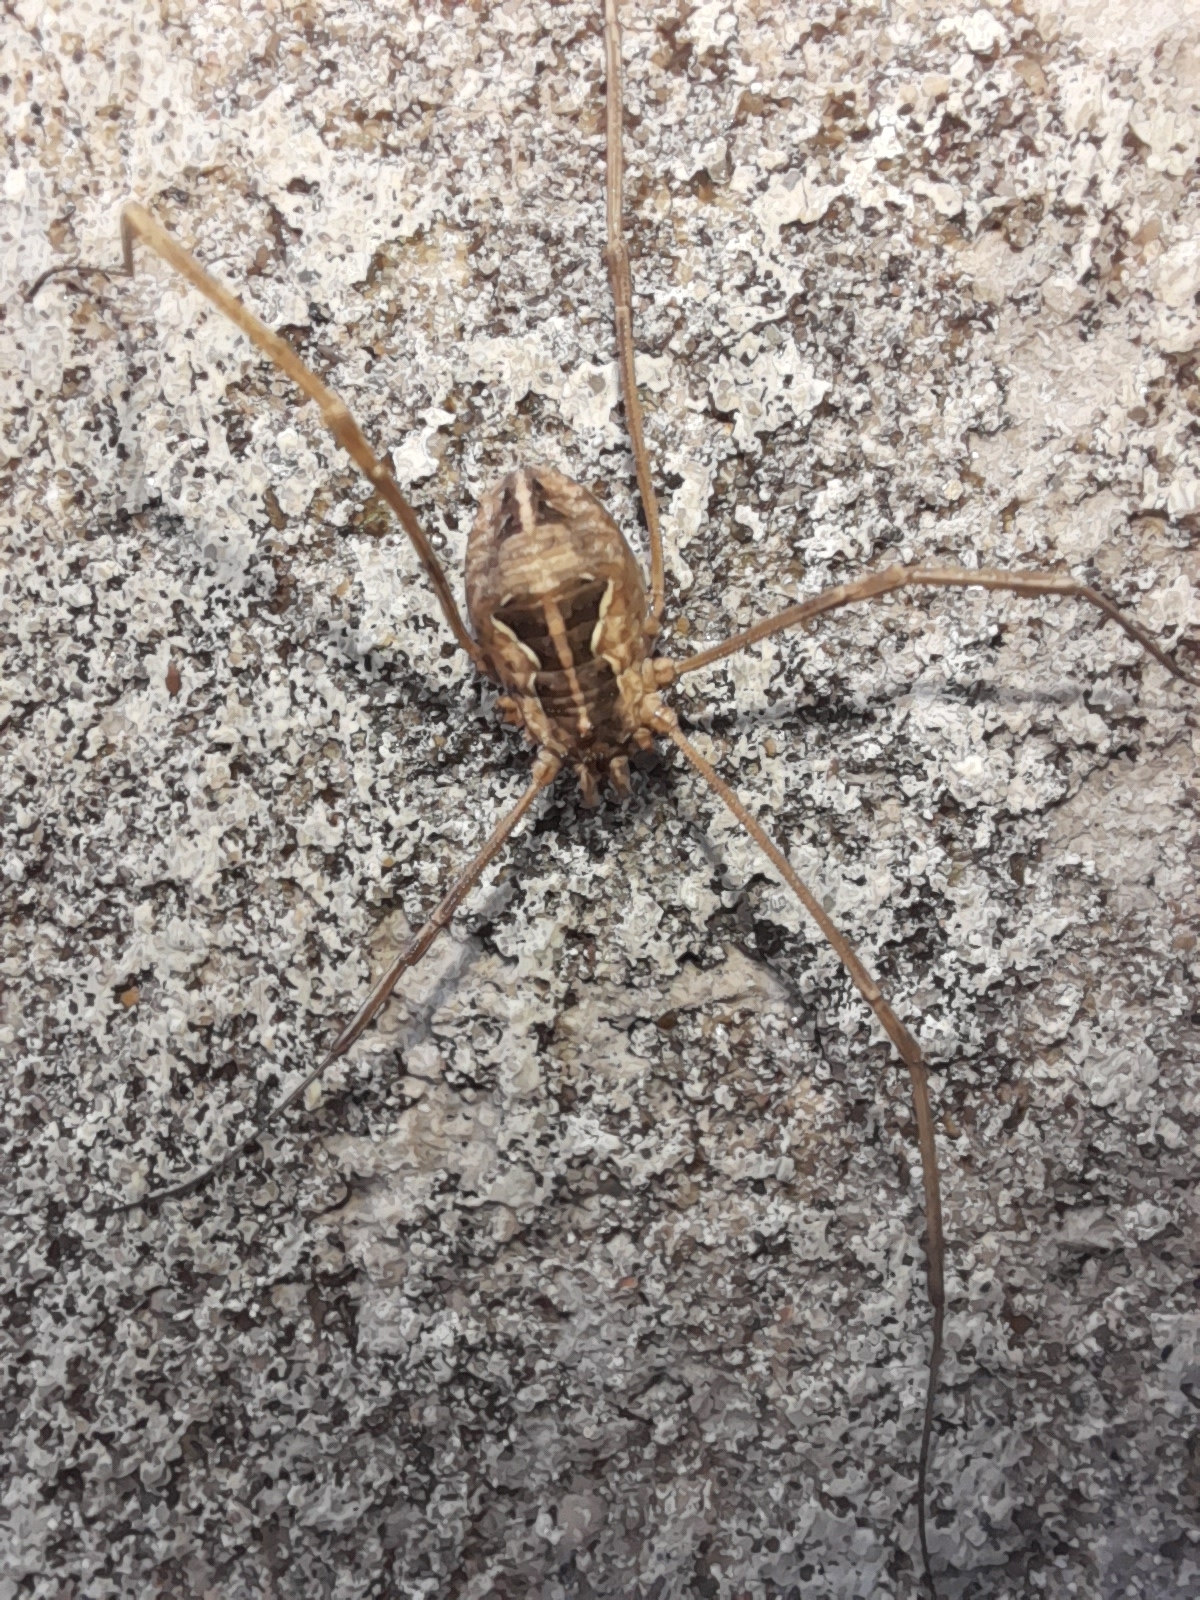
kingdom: Animalia
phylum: Arthropoda
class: Arachnida
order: Opiliones
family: Phalangiidae
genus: Metaphalangium
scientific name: Metaphalangium cirtanum
